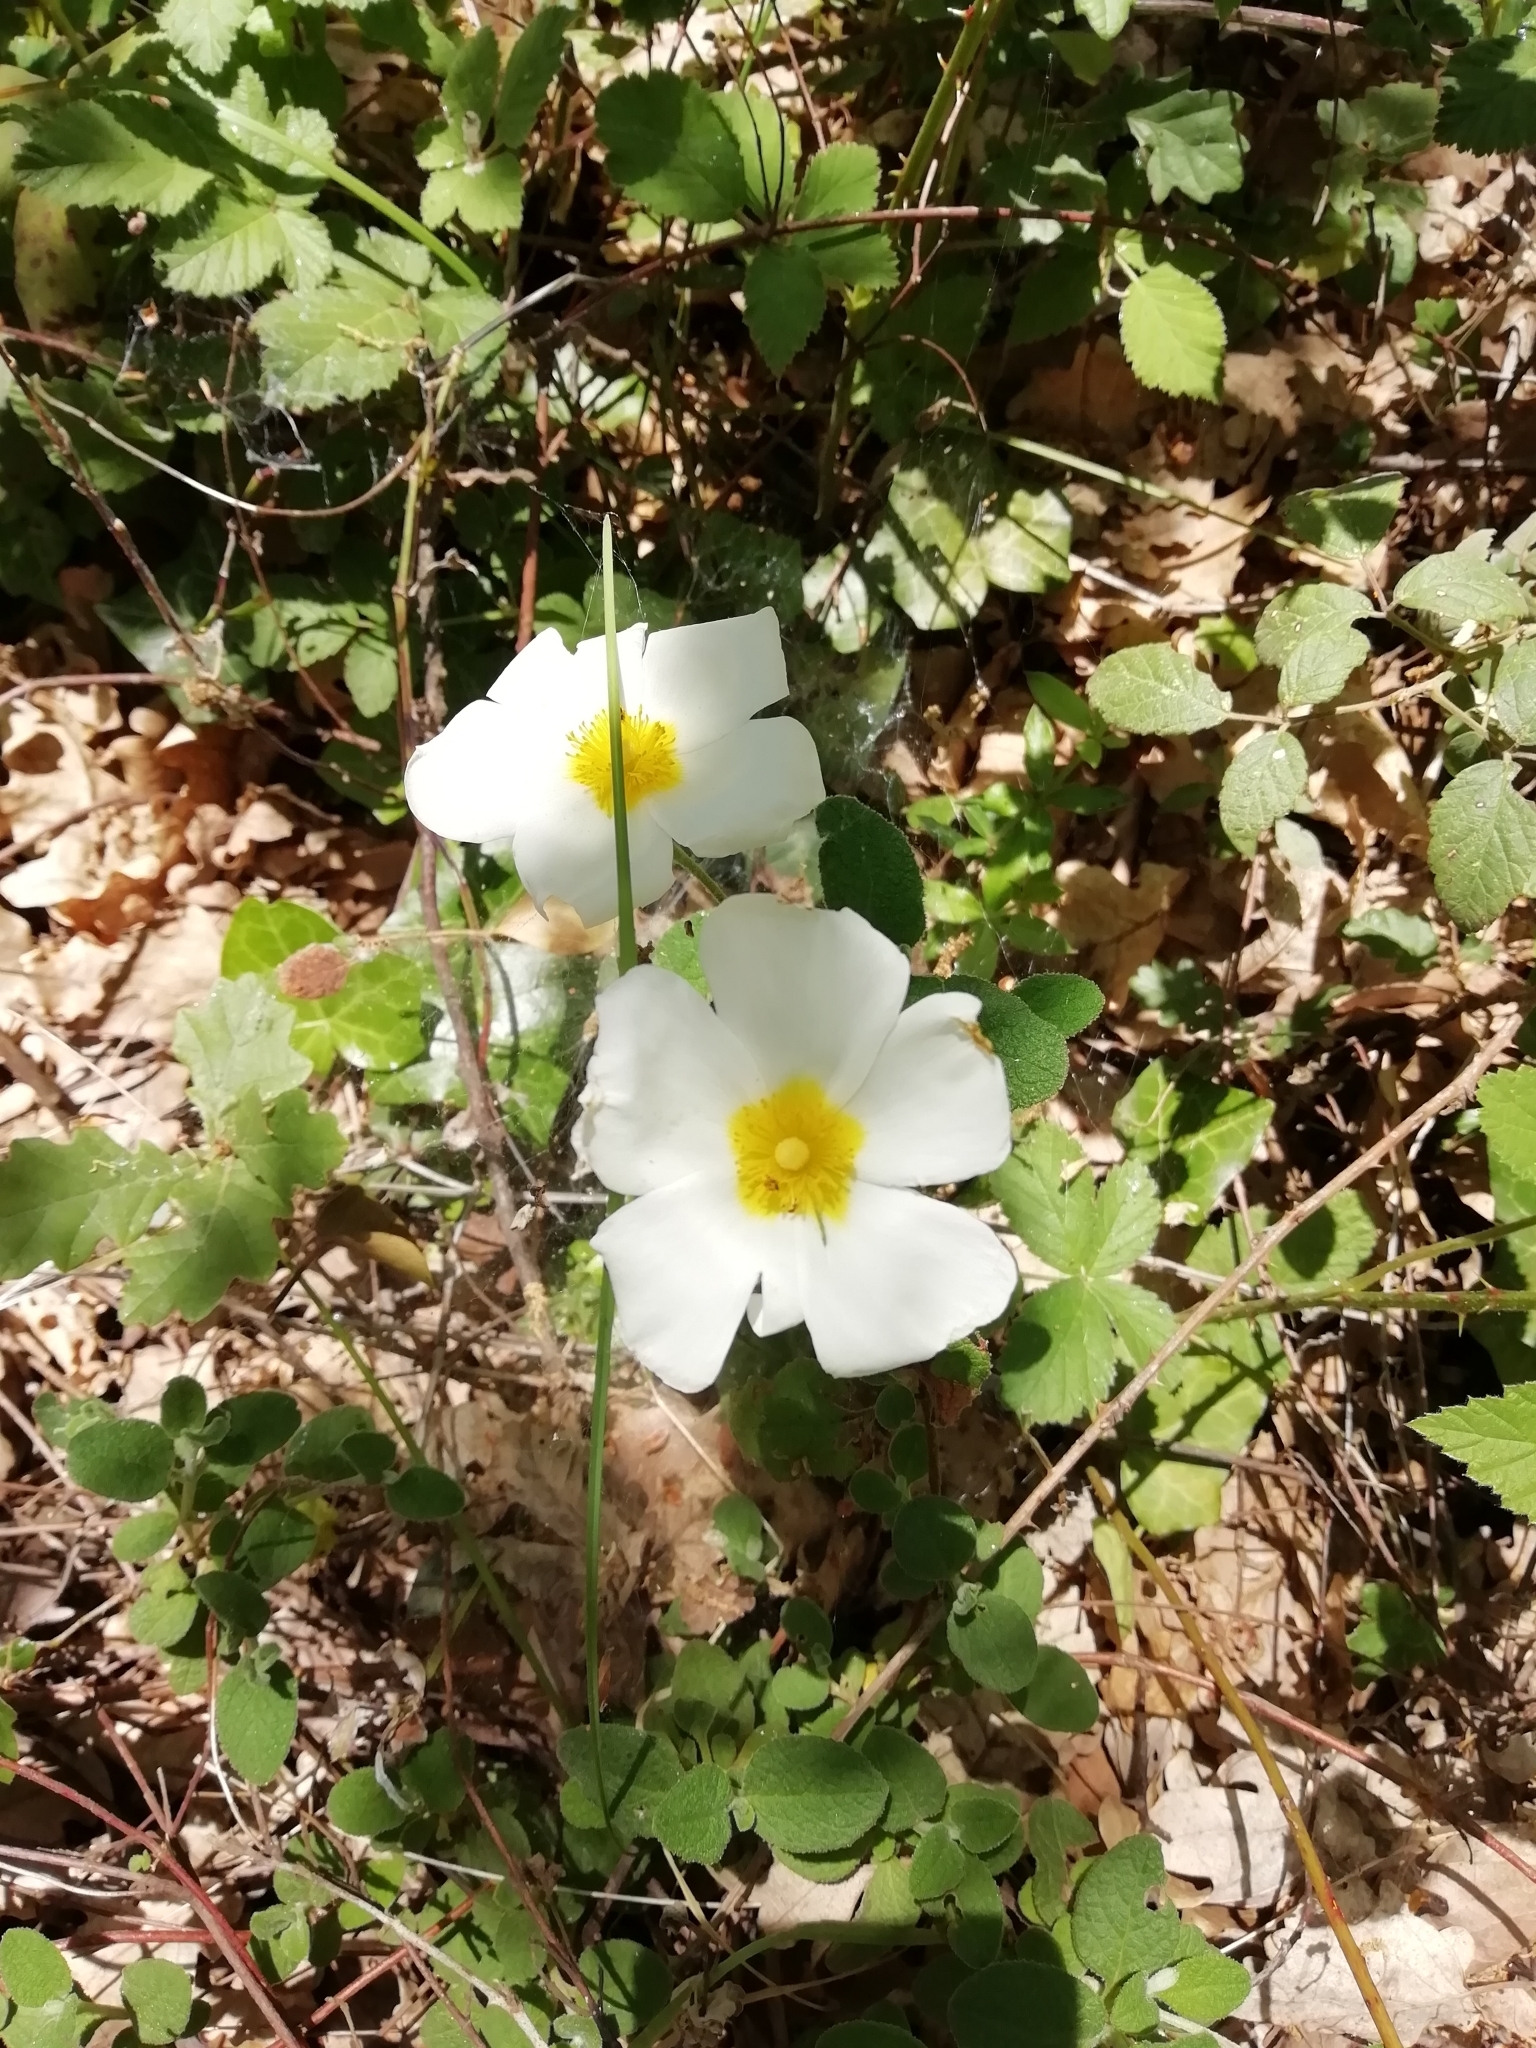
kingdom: Plantae
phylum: Tracheophyta
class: Magnoliopsida
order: Malvales
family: Cistaceae
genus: Cistus
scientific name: Cistus salviifolius
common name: Salvia cistus
